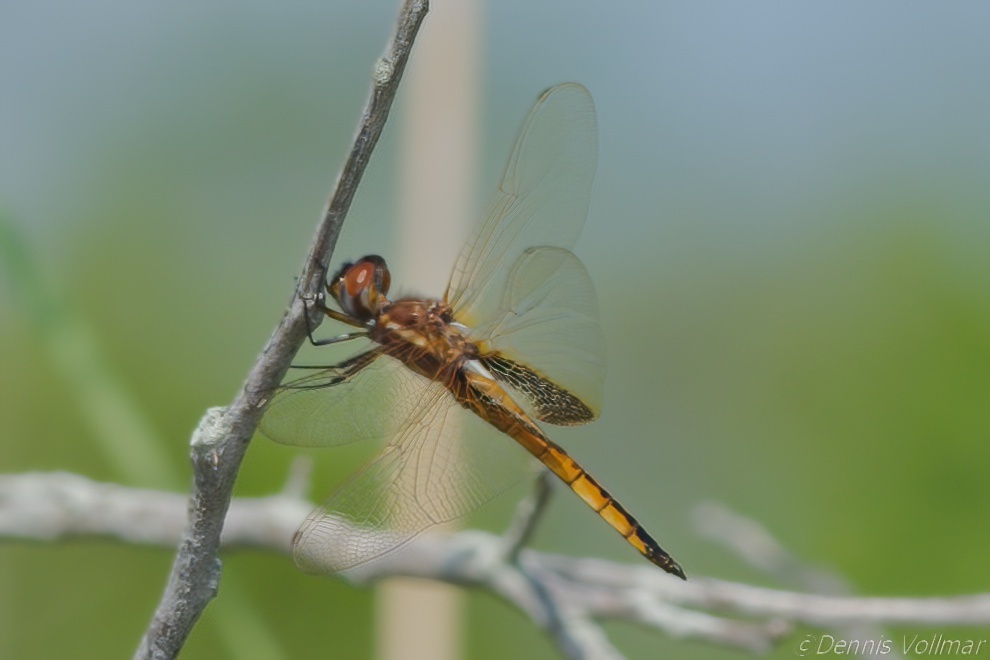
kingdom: Animalia
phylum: Arthropoda
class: Insecta
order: Odonata
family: Libellulidae
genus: Miathyria
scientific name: Miathyria marcella
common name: Hyacinth glider
